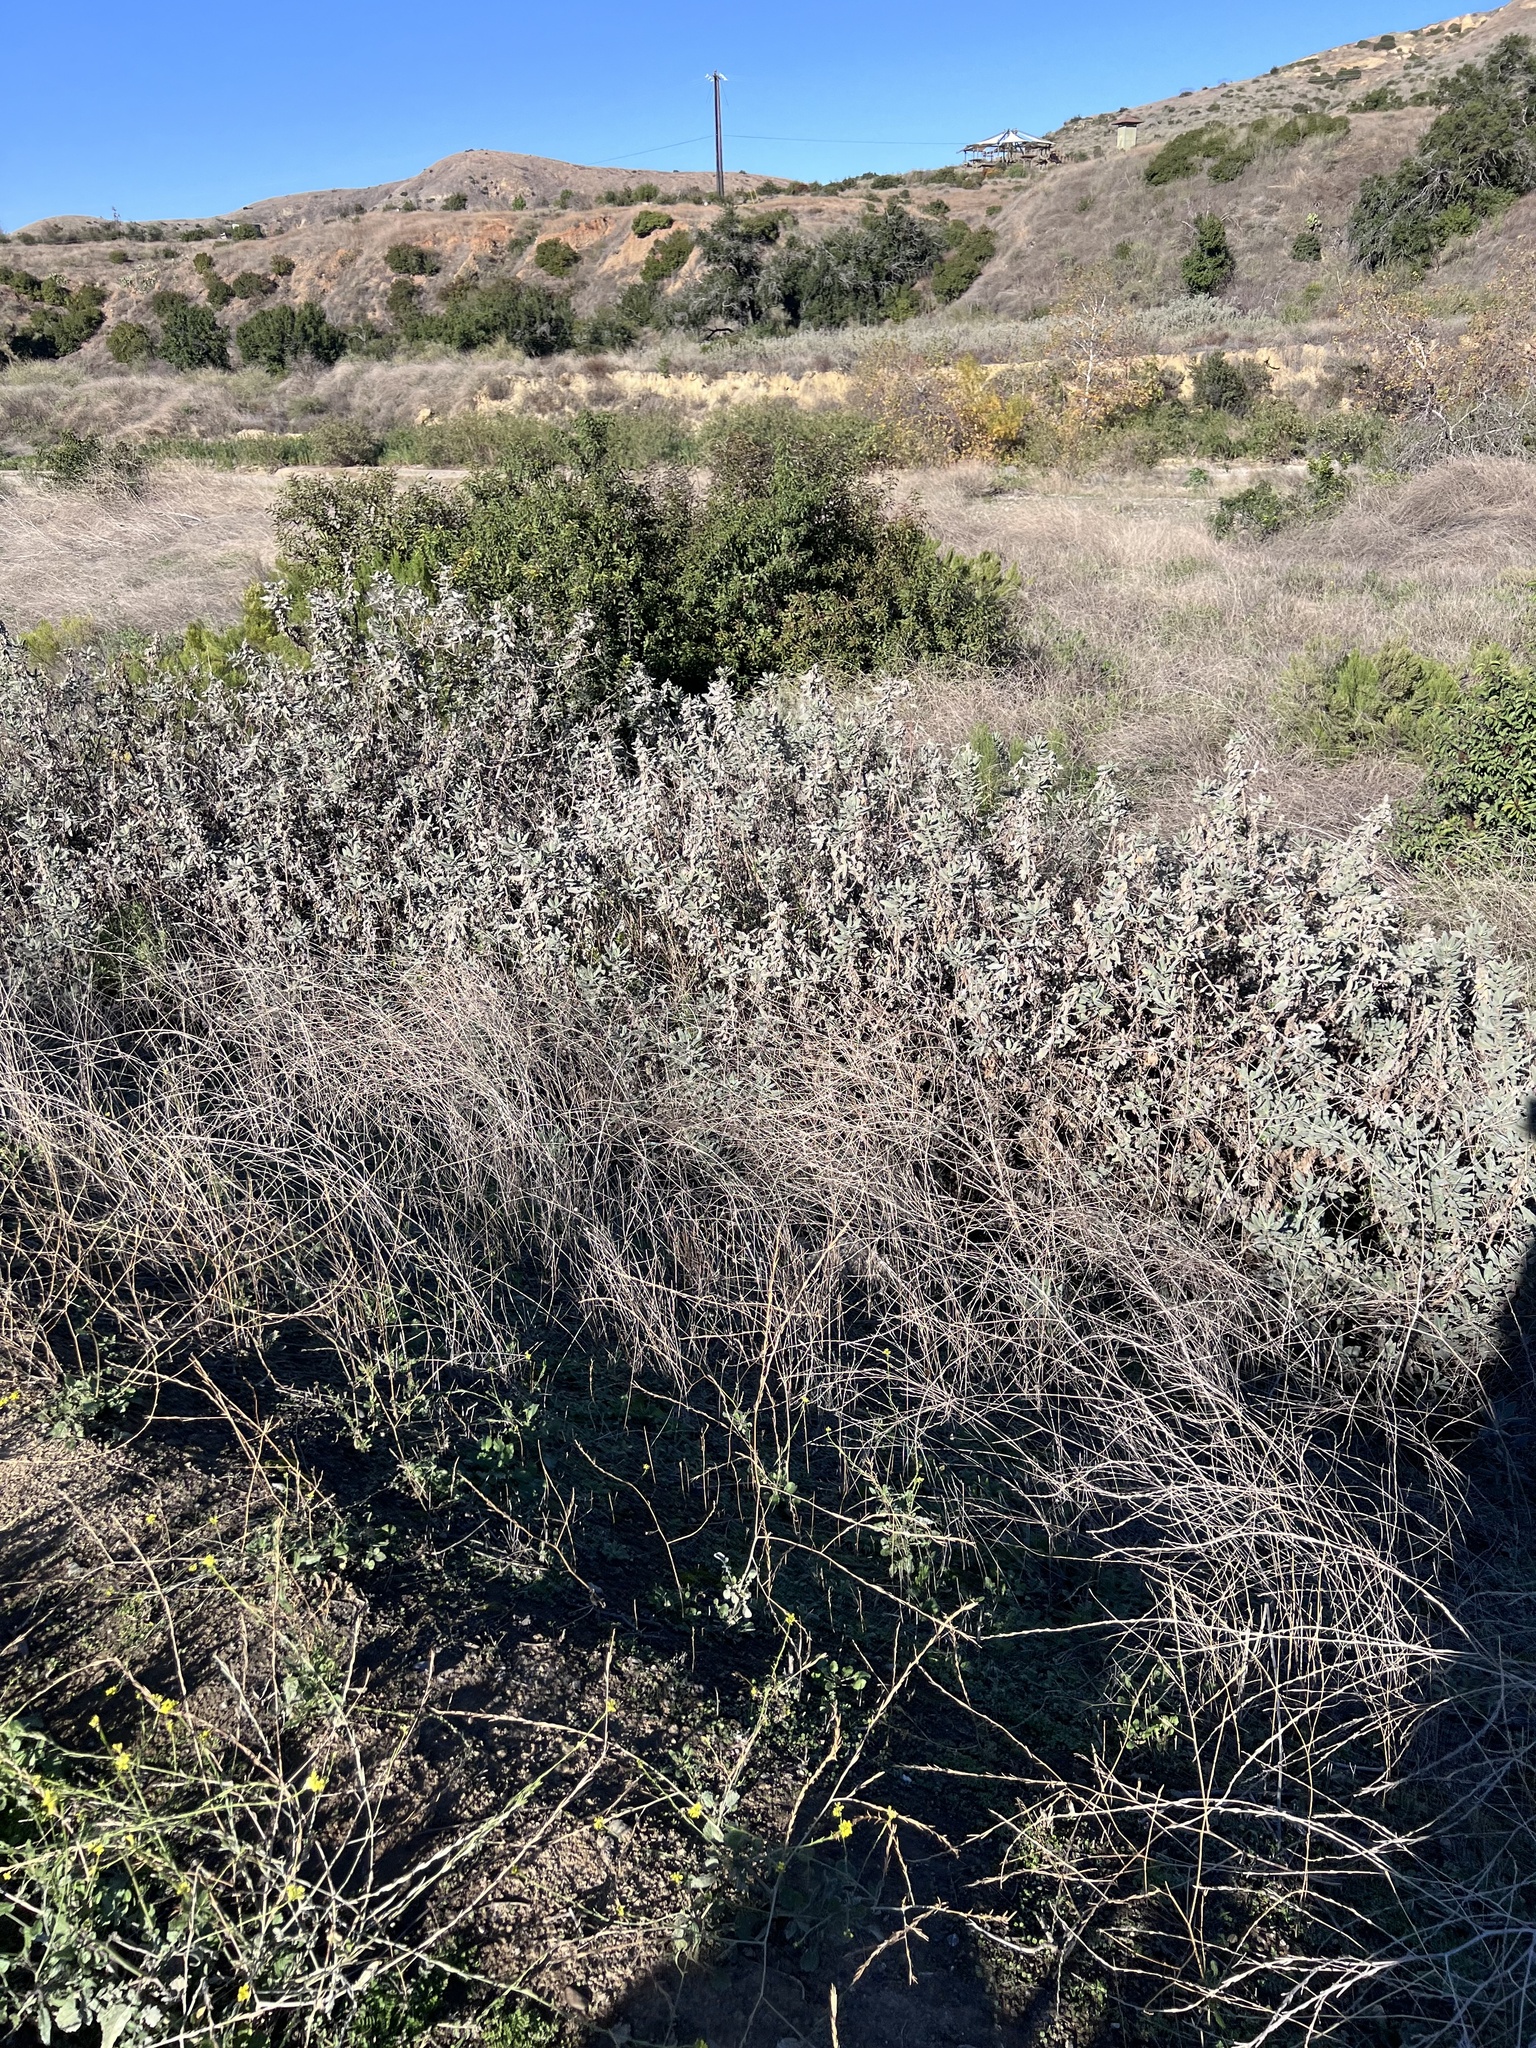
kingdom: Plantae
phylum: Tracheophyta
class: Magnoliopsida
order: Boraginales
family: Namaceae
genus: Eriodictyon
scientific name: Eriodictyon crassifolium
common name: Thick-leaf yerba-santa
